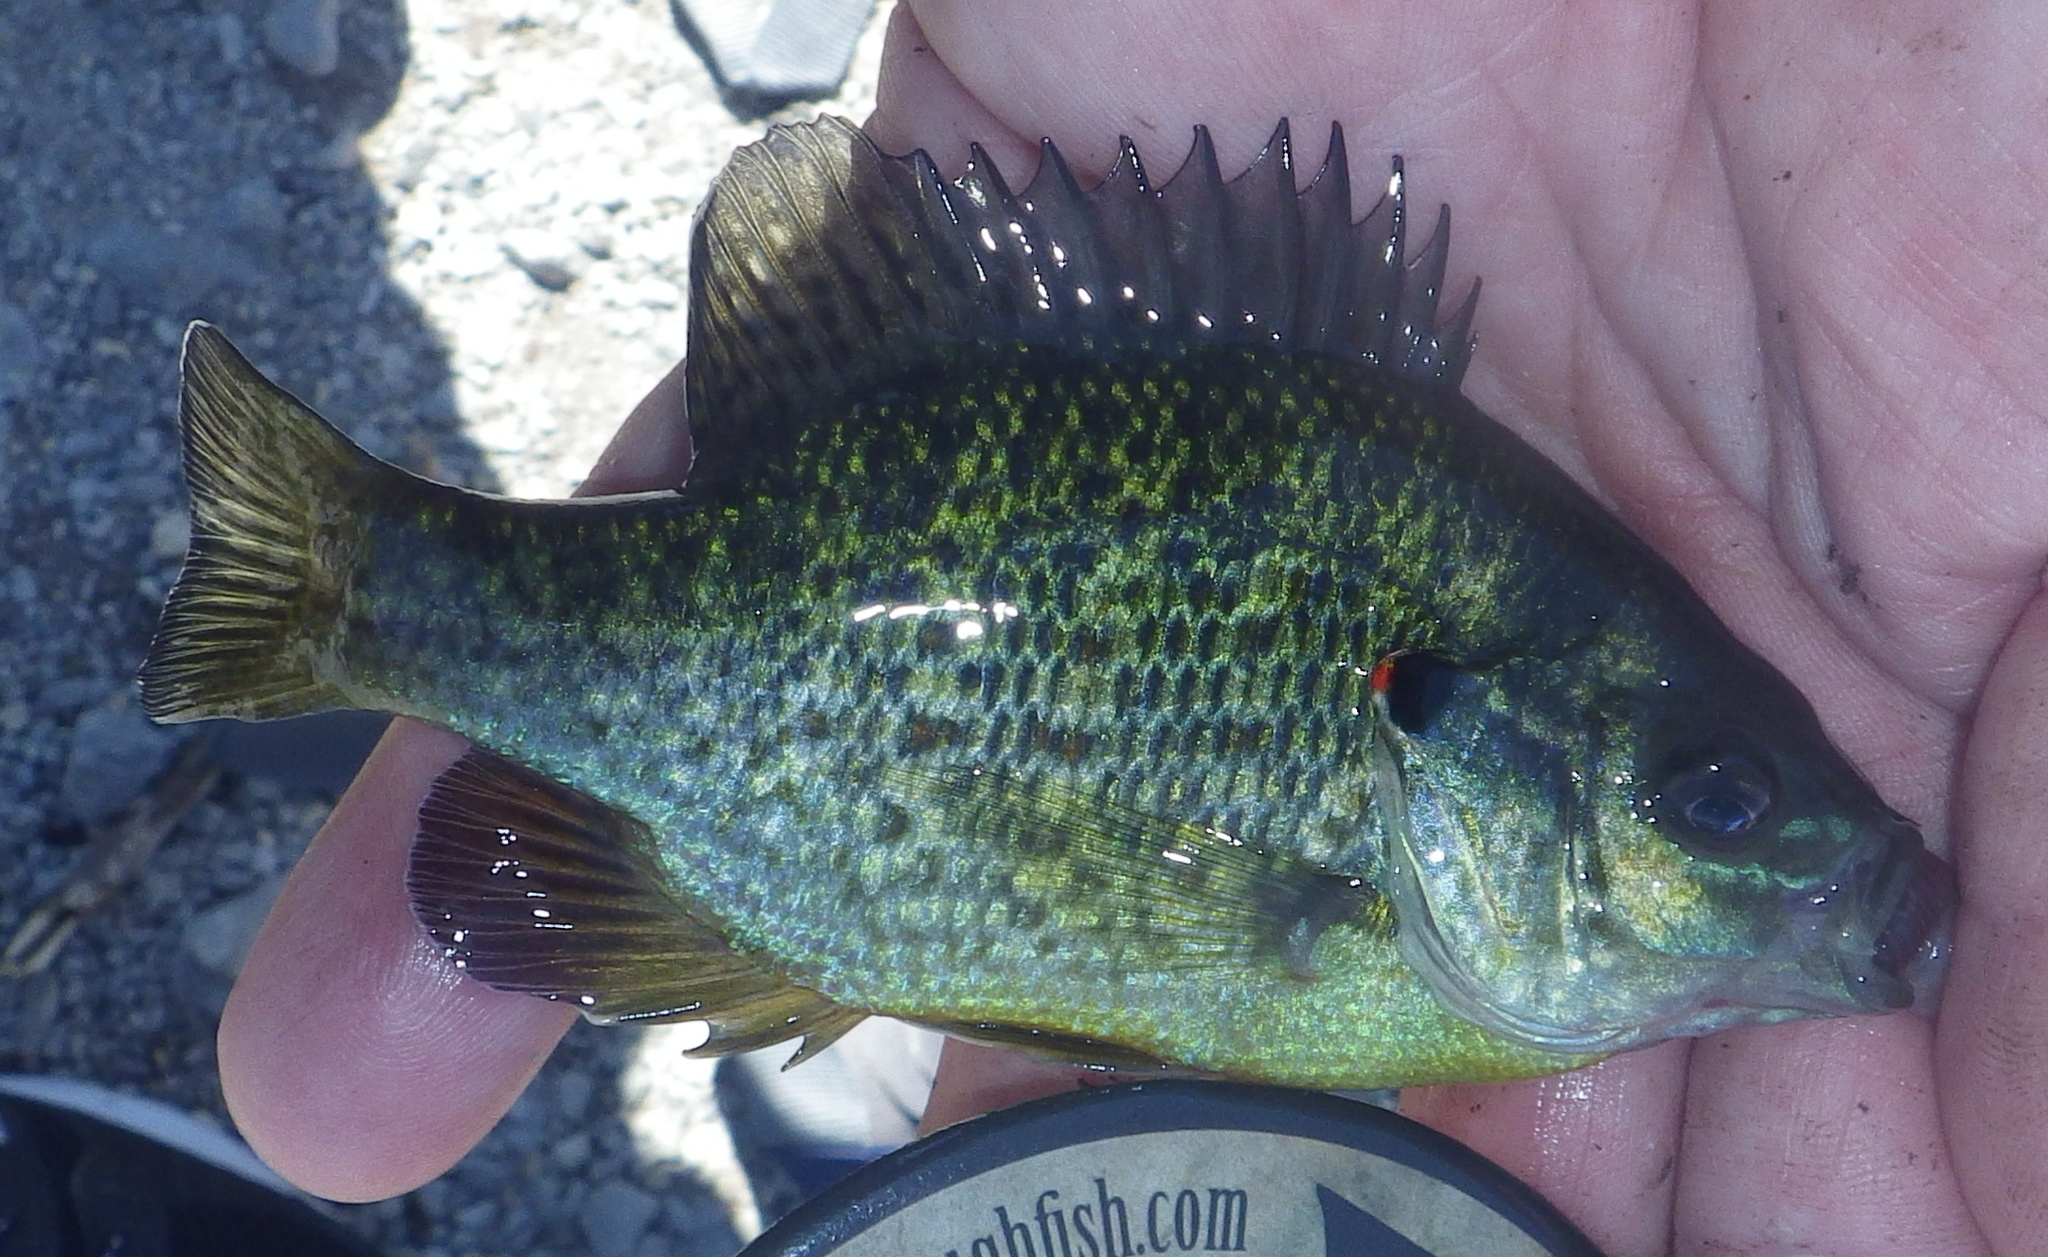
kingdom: Animalia
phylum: Chordata
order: Perciformes
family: Centrarchidae
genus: Lepomis
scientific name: Lepomis gibbosus
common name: Pumpkinseed
